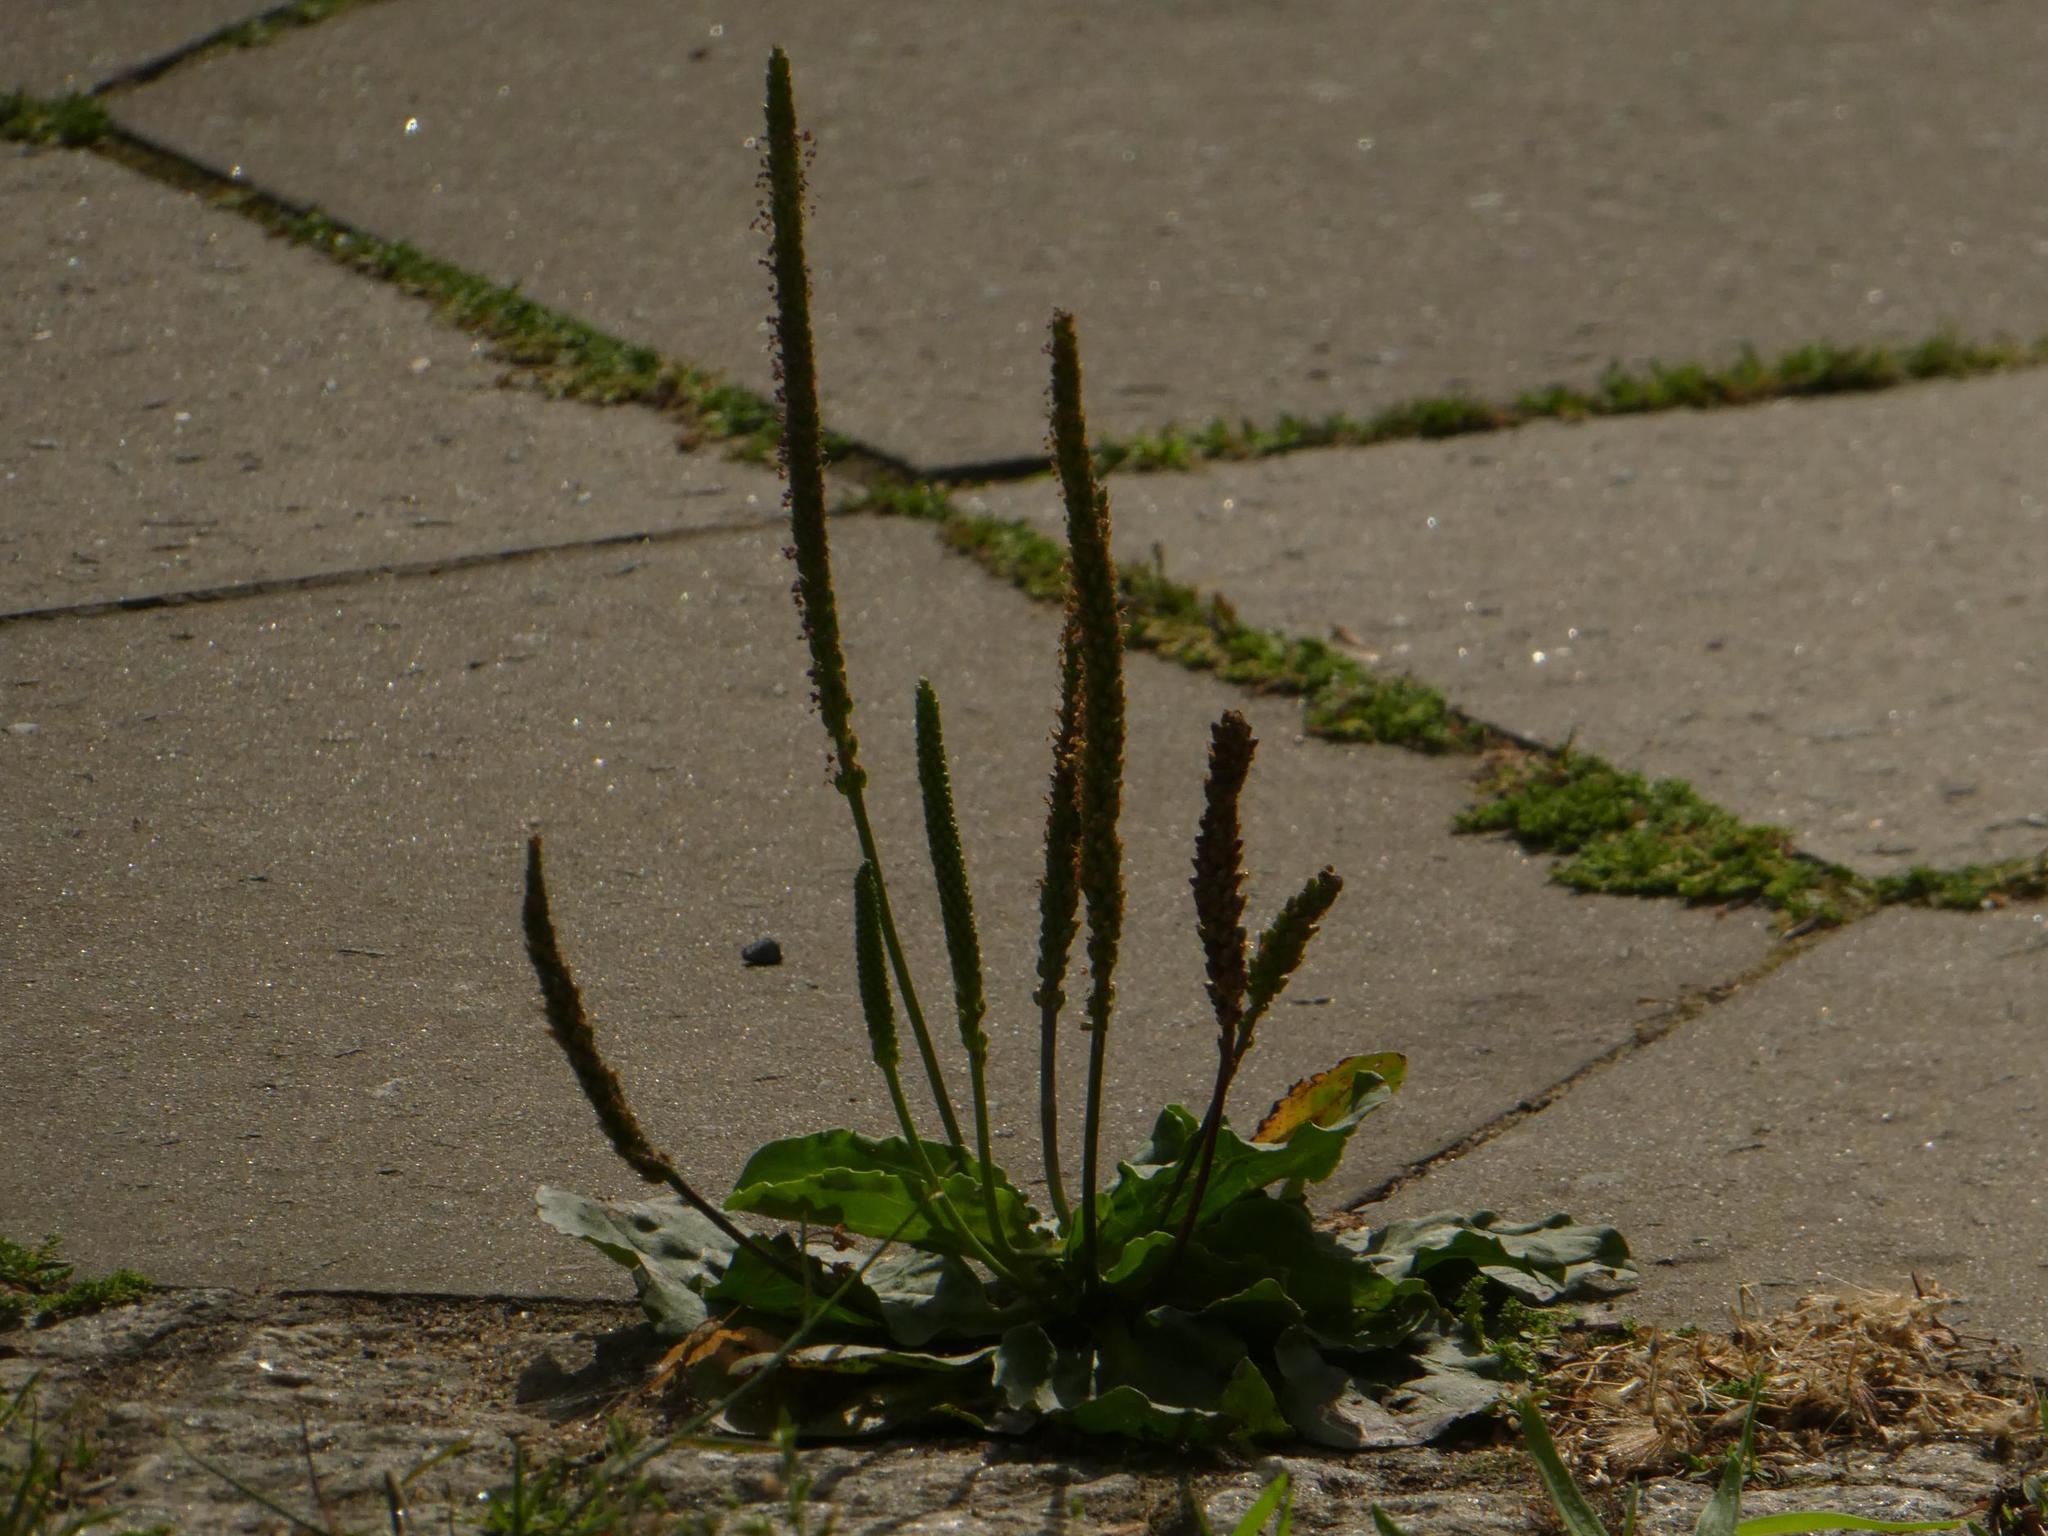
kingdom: Plantae
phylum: Tracheophyta
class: Magnoliopsida
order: Lamiales
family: Plantaginaceae
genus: Plantago
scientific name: Plantago major
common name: Common plantain
